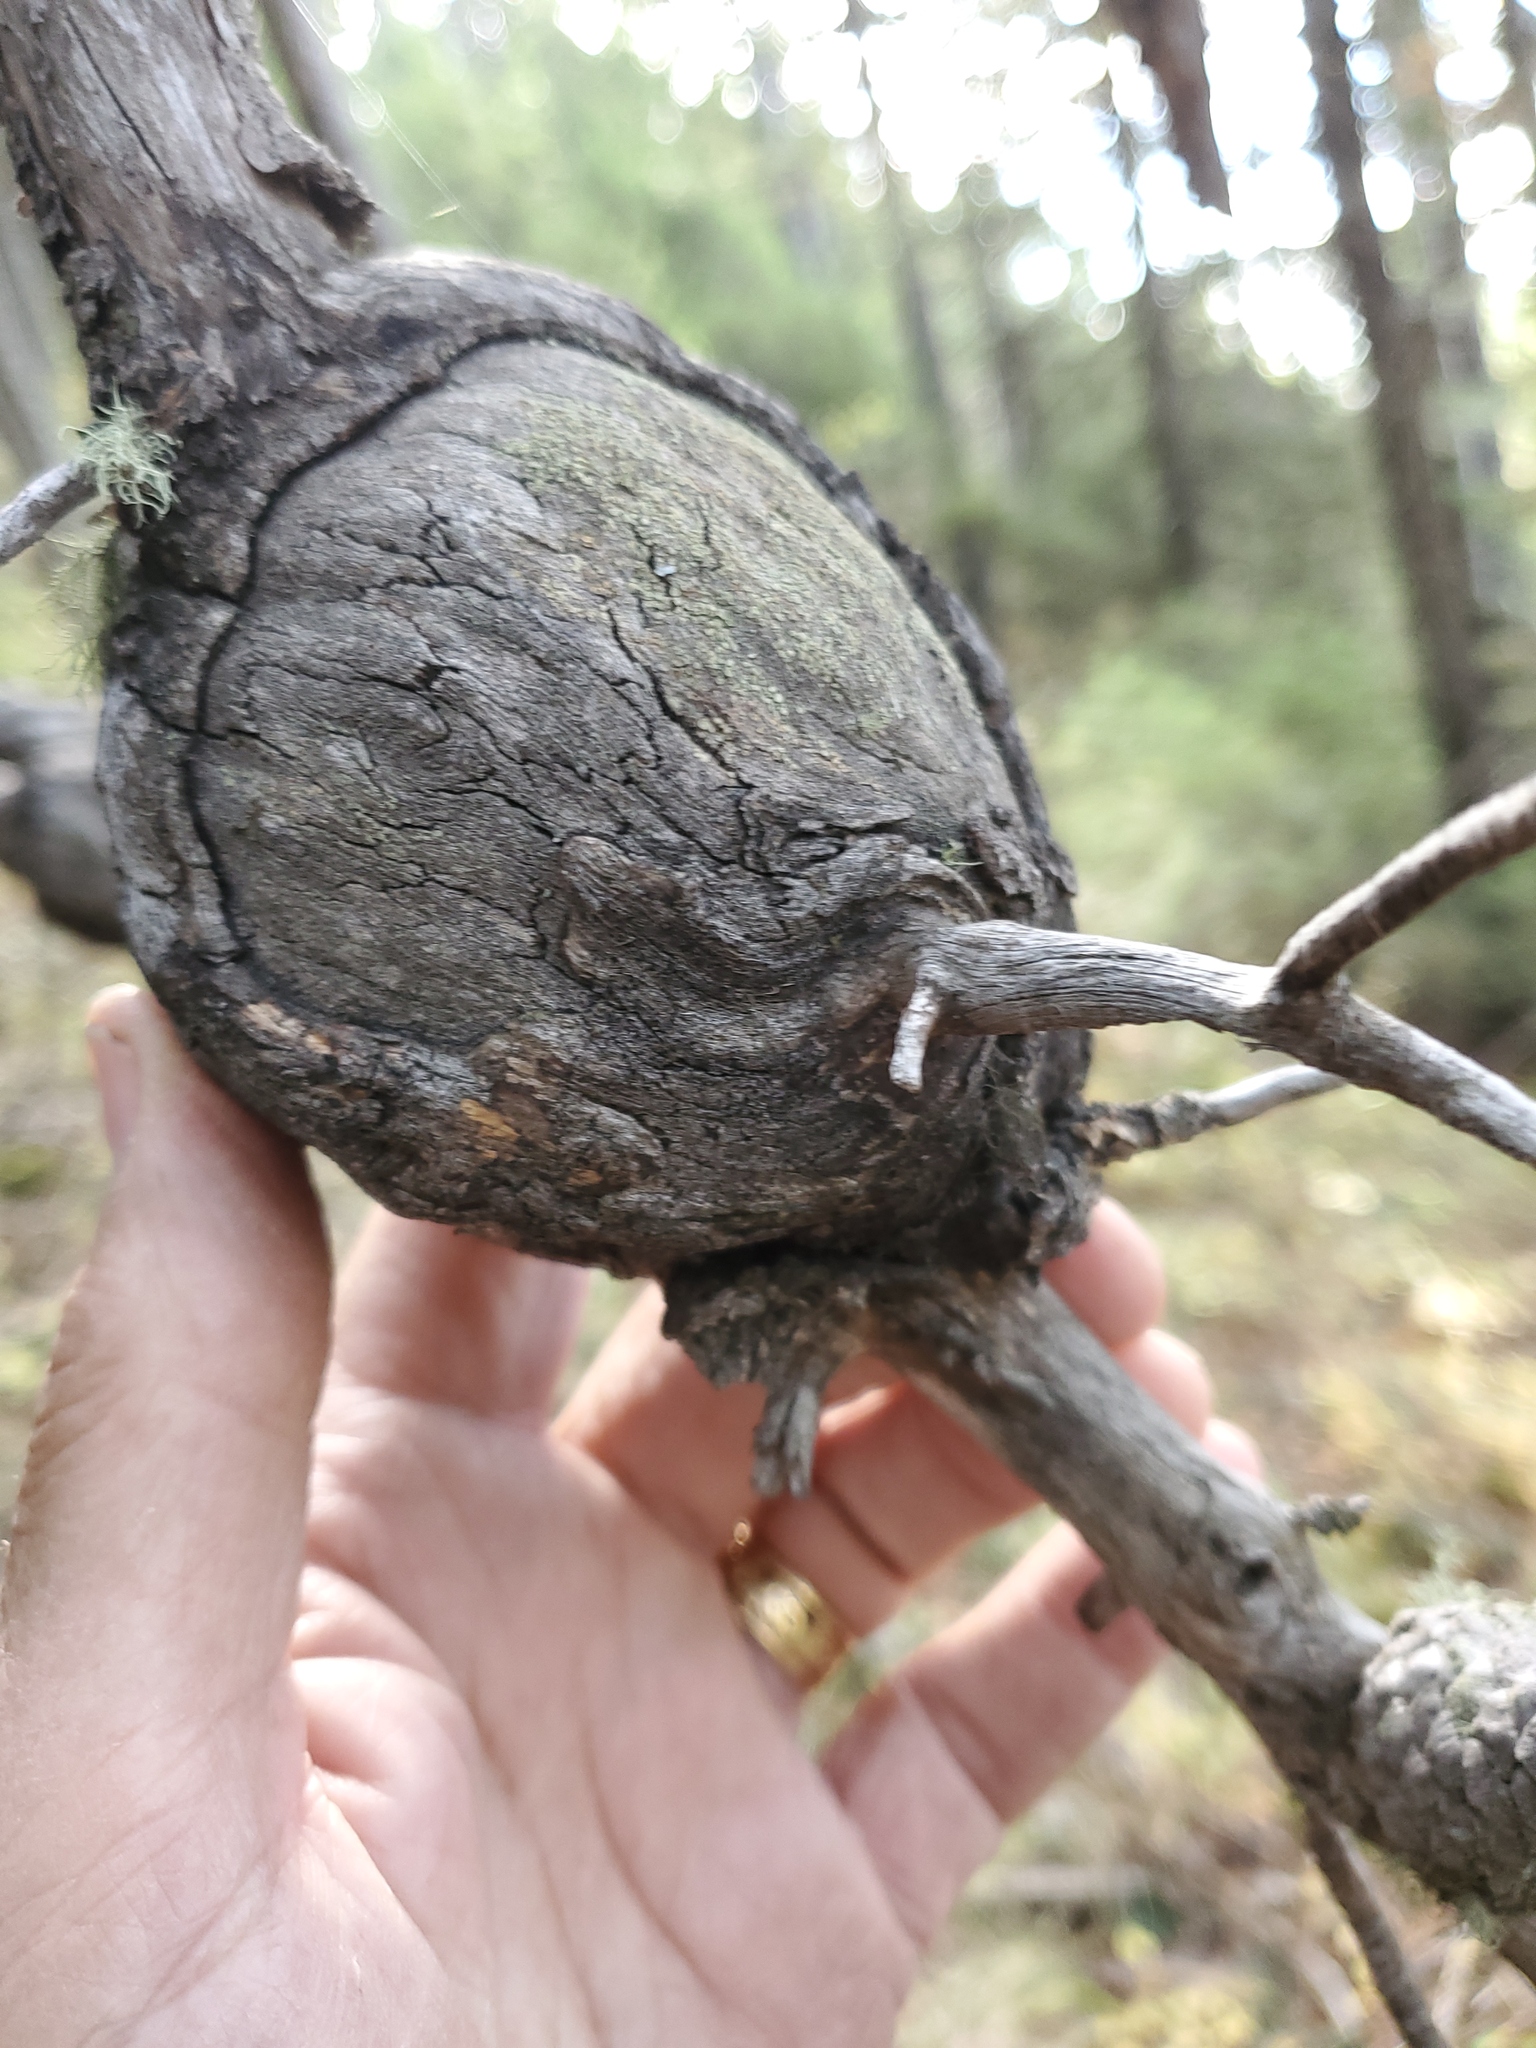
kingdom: Fungi
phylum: Basidiomycota
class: Pucciniomycetes
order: Pucciniales
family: Cronartiaceae
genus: Cronartium
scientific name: Cronartium harknessii
